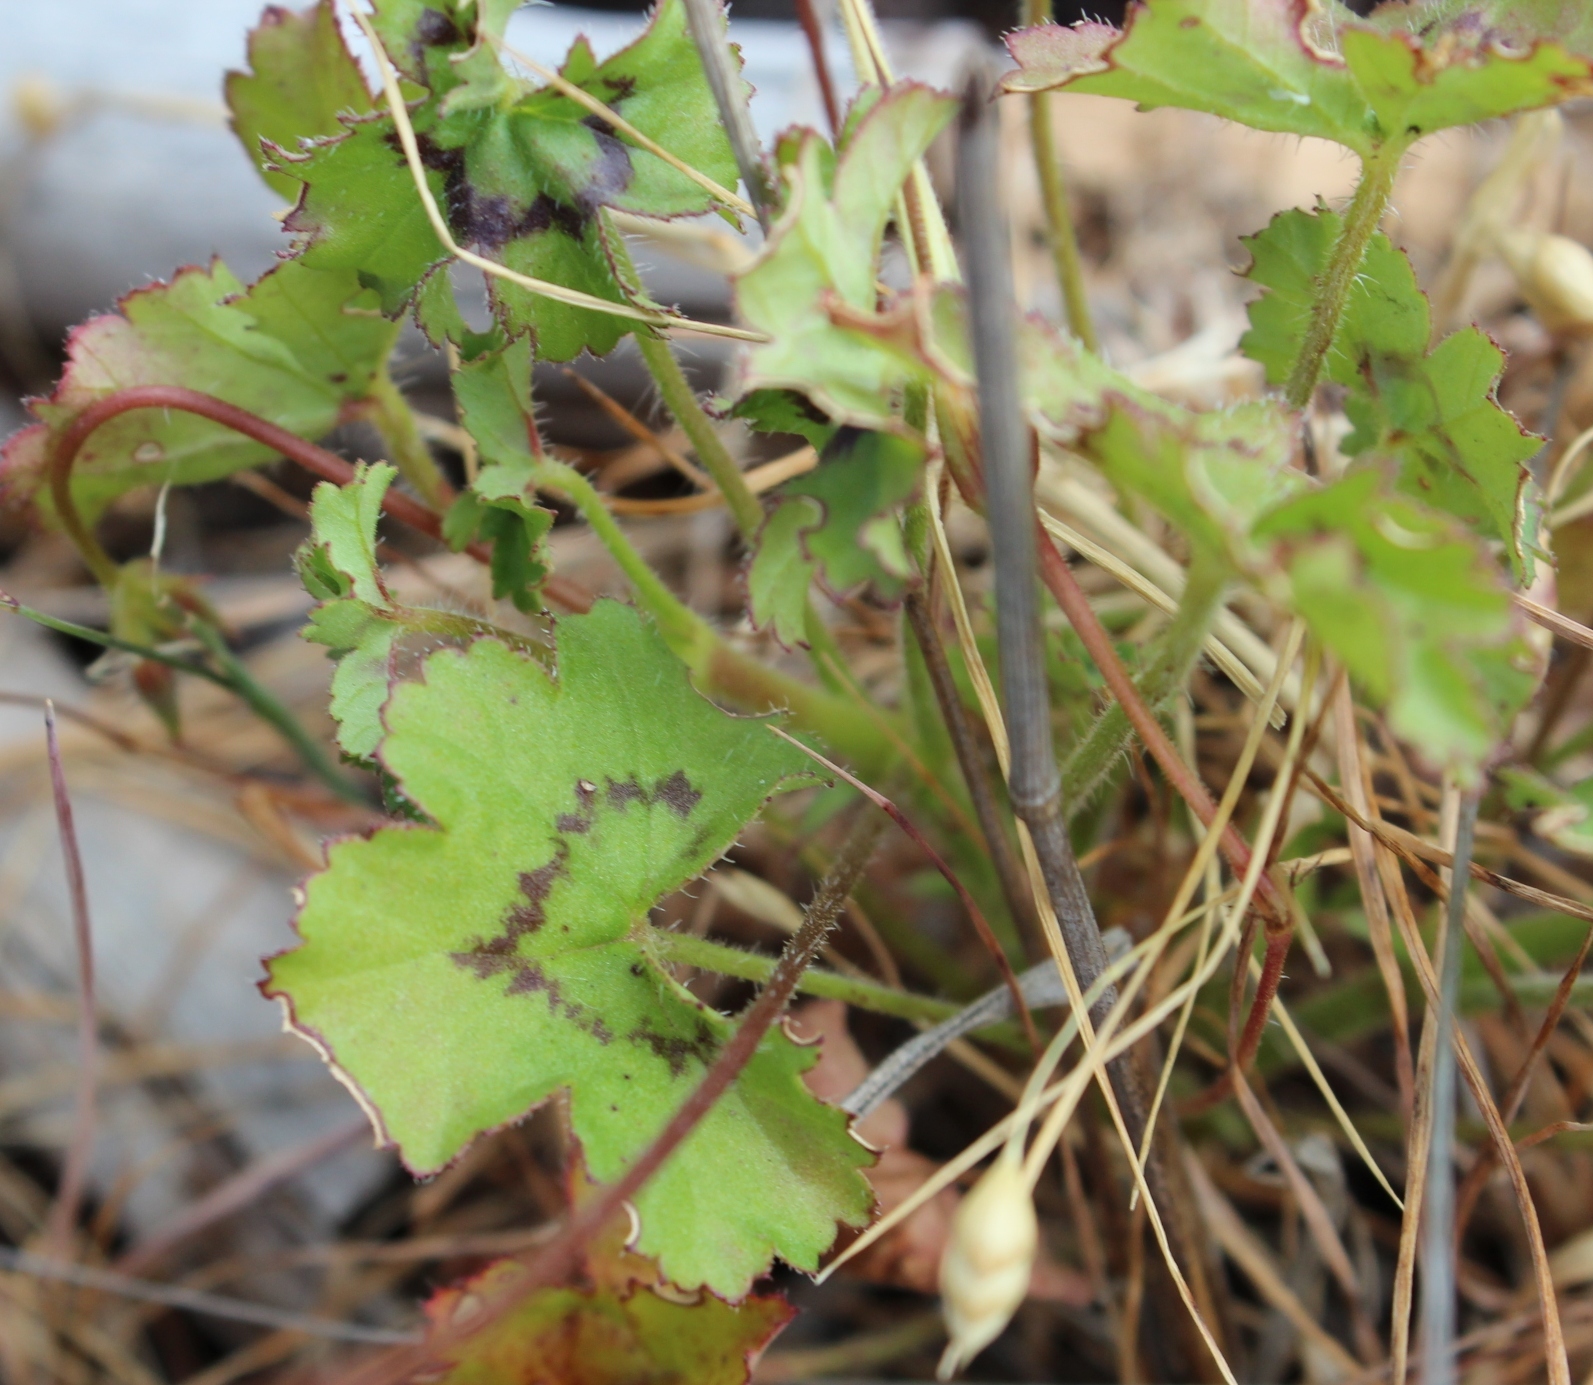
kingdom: Plantae
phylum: Tracheophyta
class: Magnoliopsida
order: Geraniales
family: Geraniaceae
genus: Pelargonium
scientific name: Pelargonium elongatum
